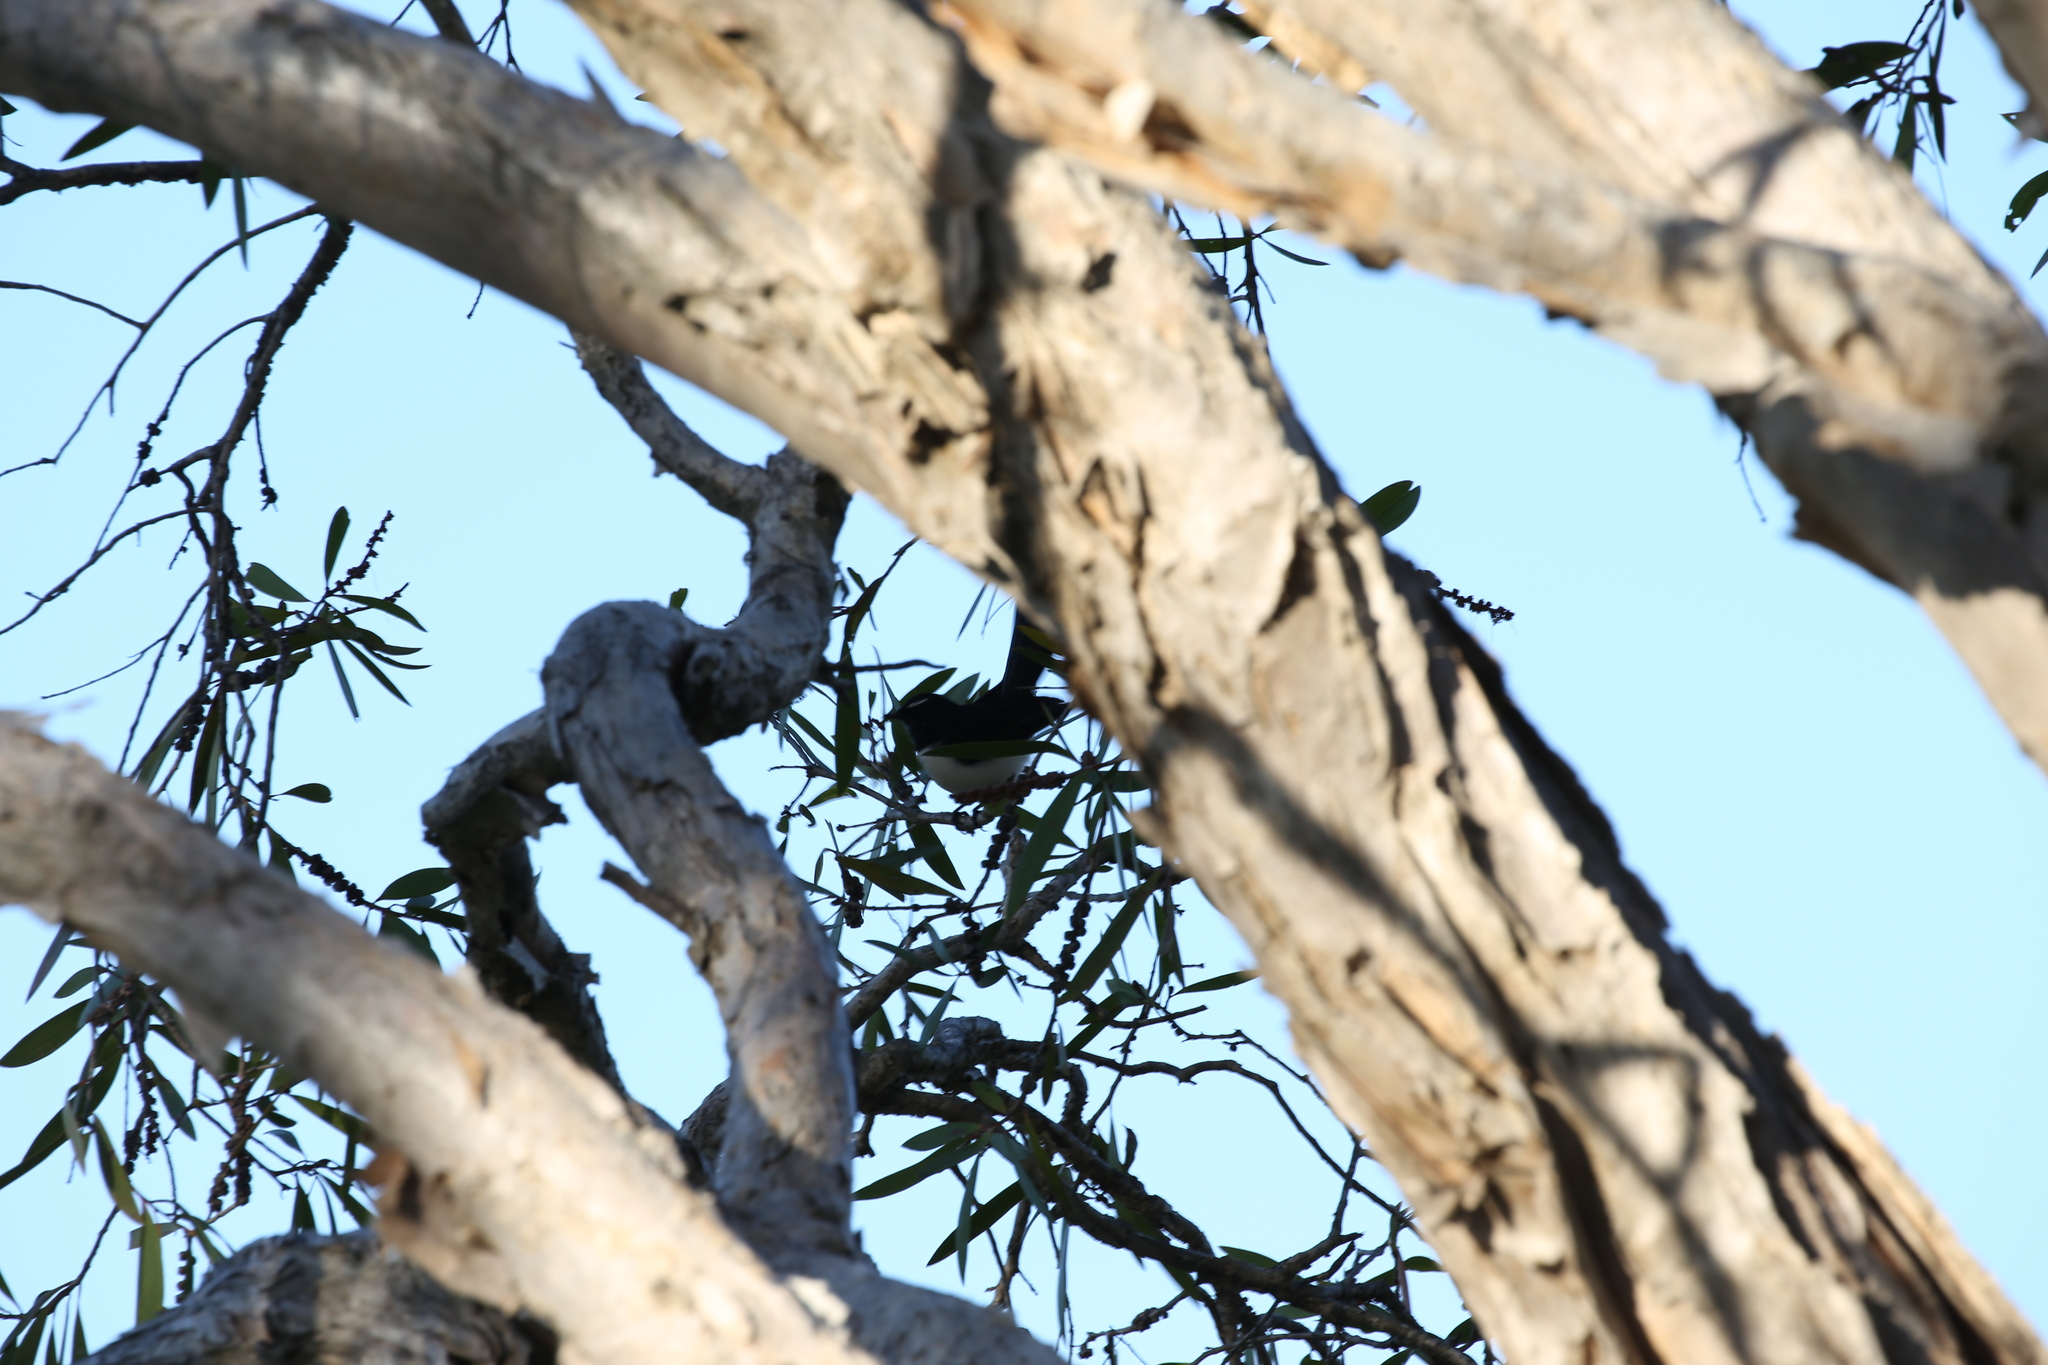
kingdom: Animalia
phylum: Chordata
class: Aves
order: Passeriformes
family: Rhipiduridae
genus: Rhipidura
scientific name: Rhipidura leucophrys
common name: Willie wagtail
